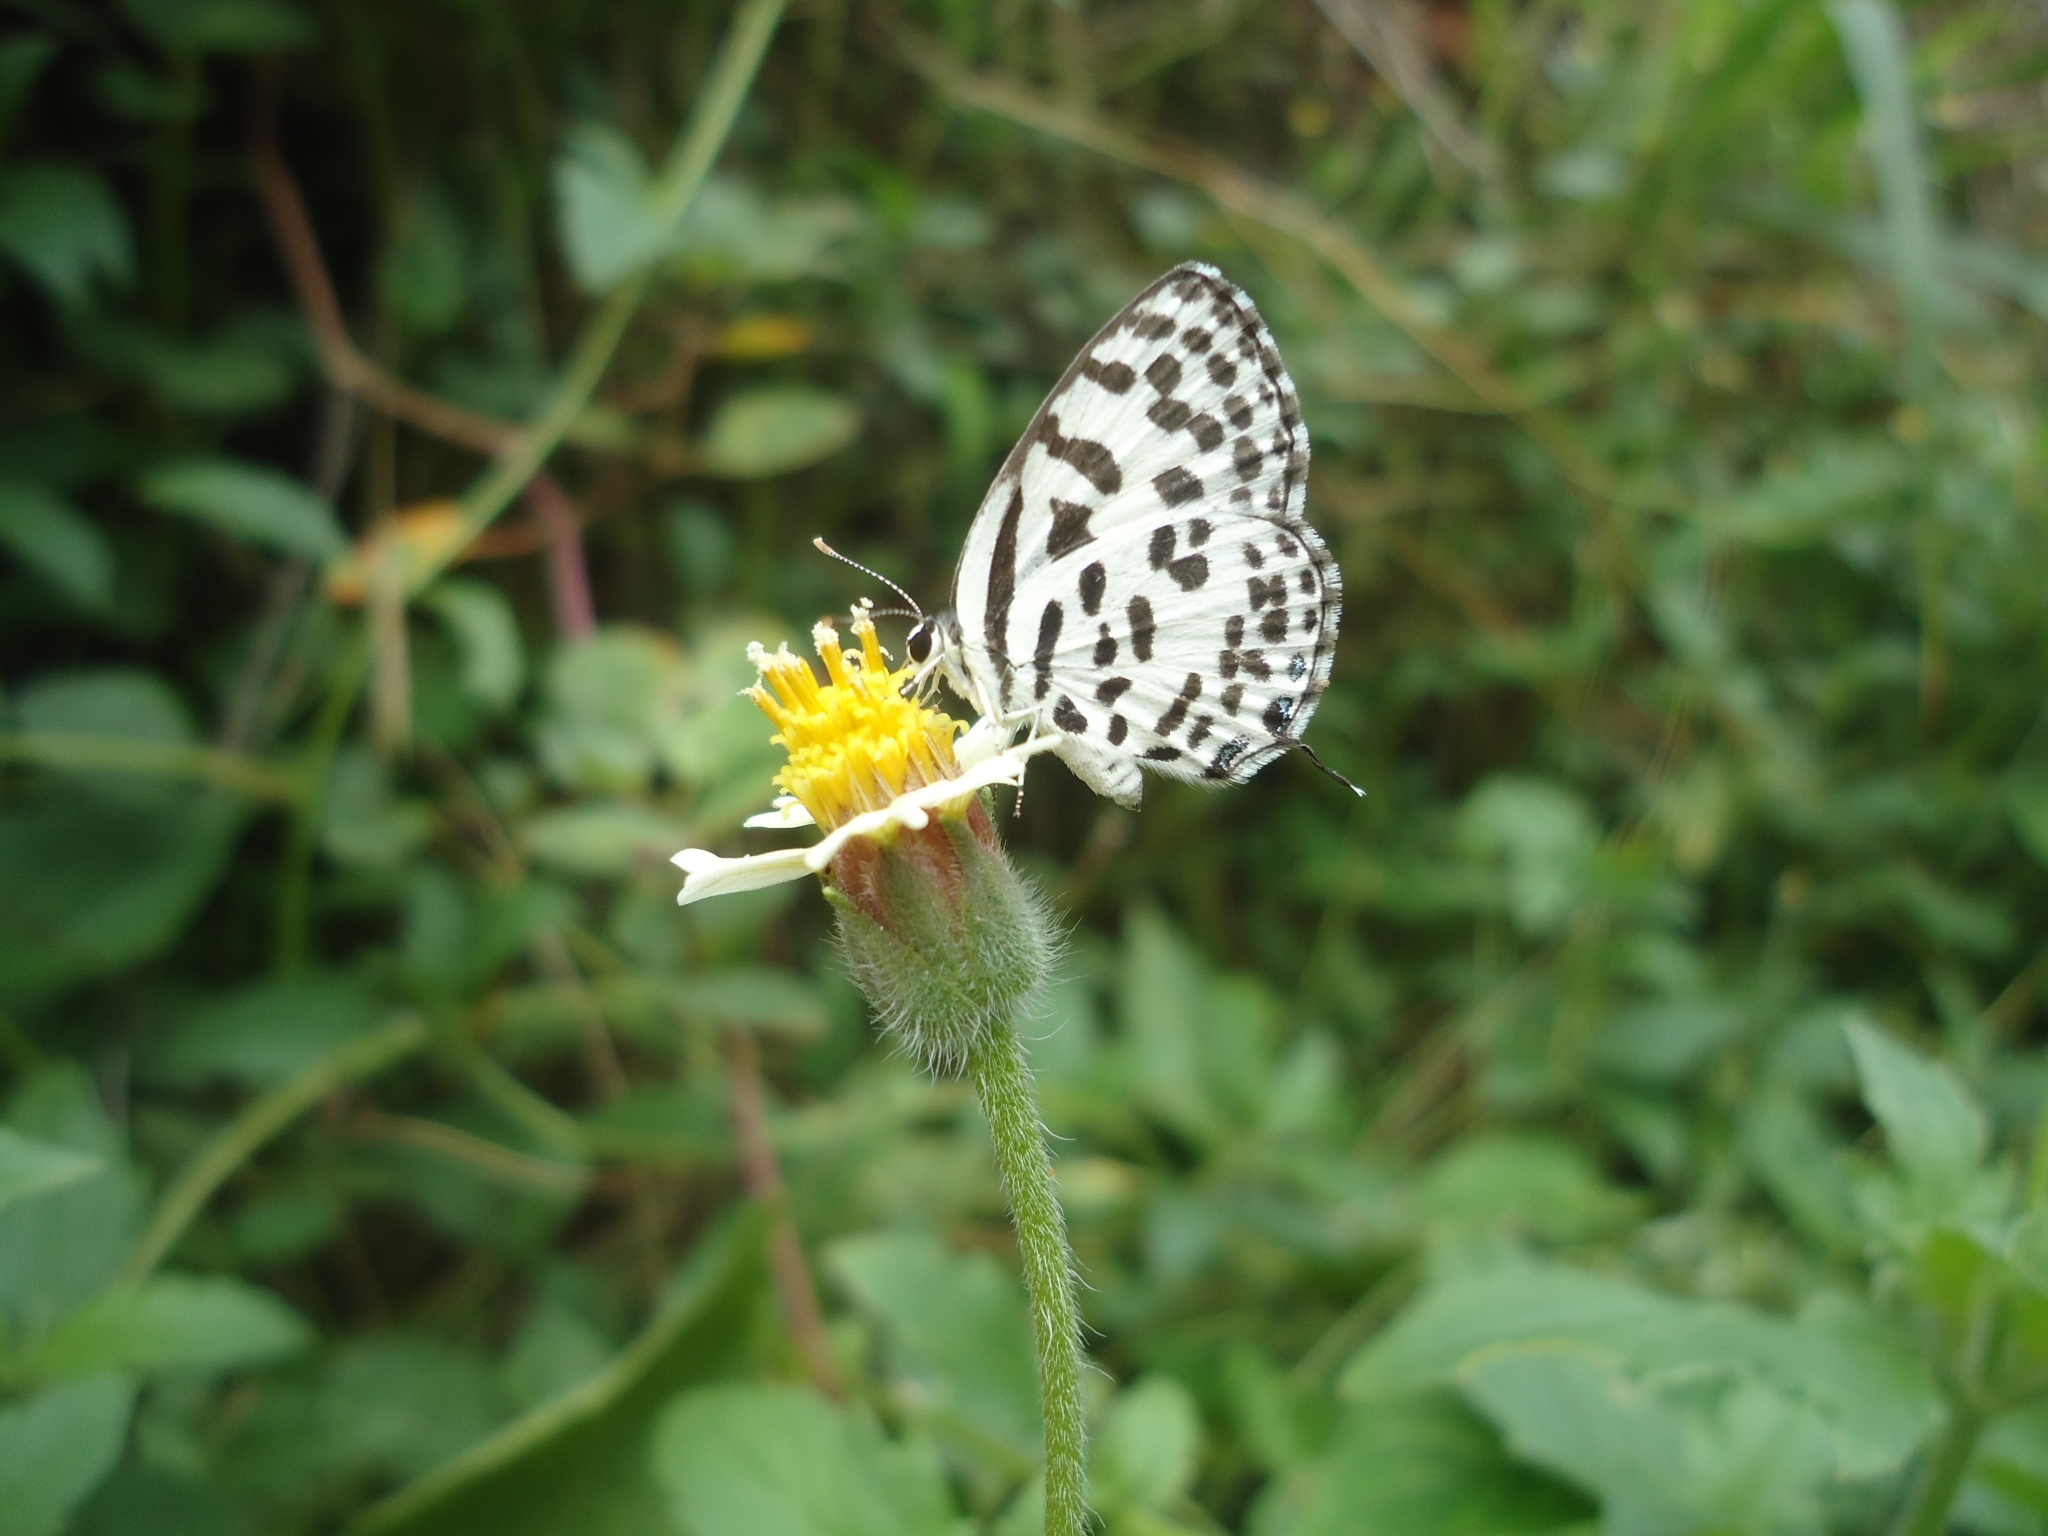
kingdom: Animalia
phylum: Arthropoda
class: Insecta
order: Lepidoptera
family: Lycaenidae
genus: Castalius
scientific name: Castalius rosimon
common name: Common pierrot
